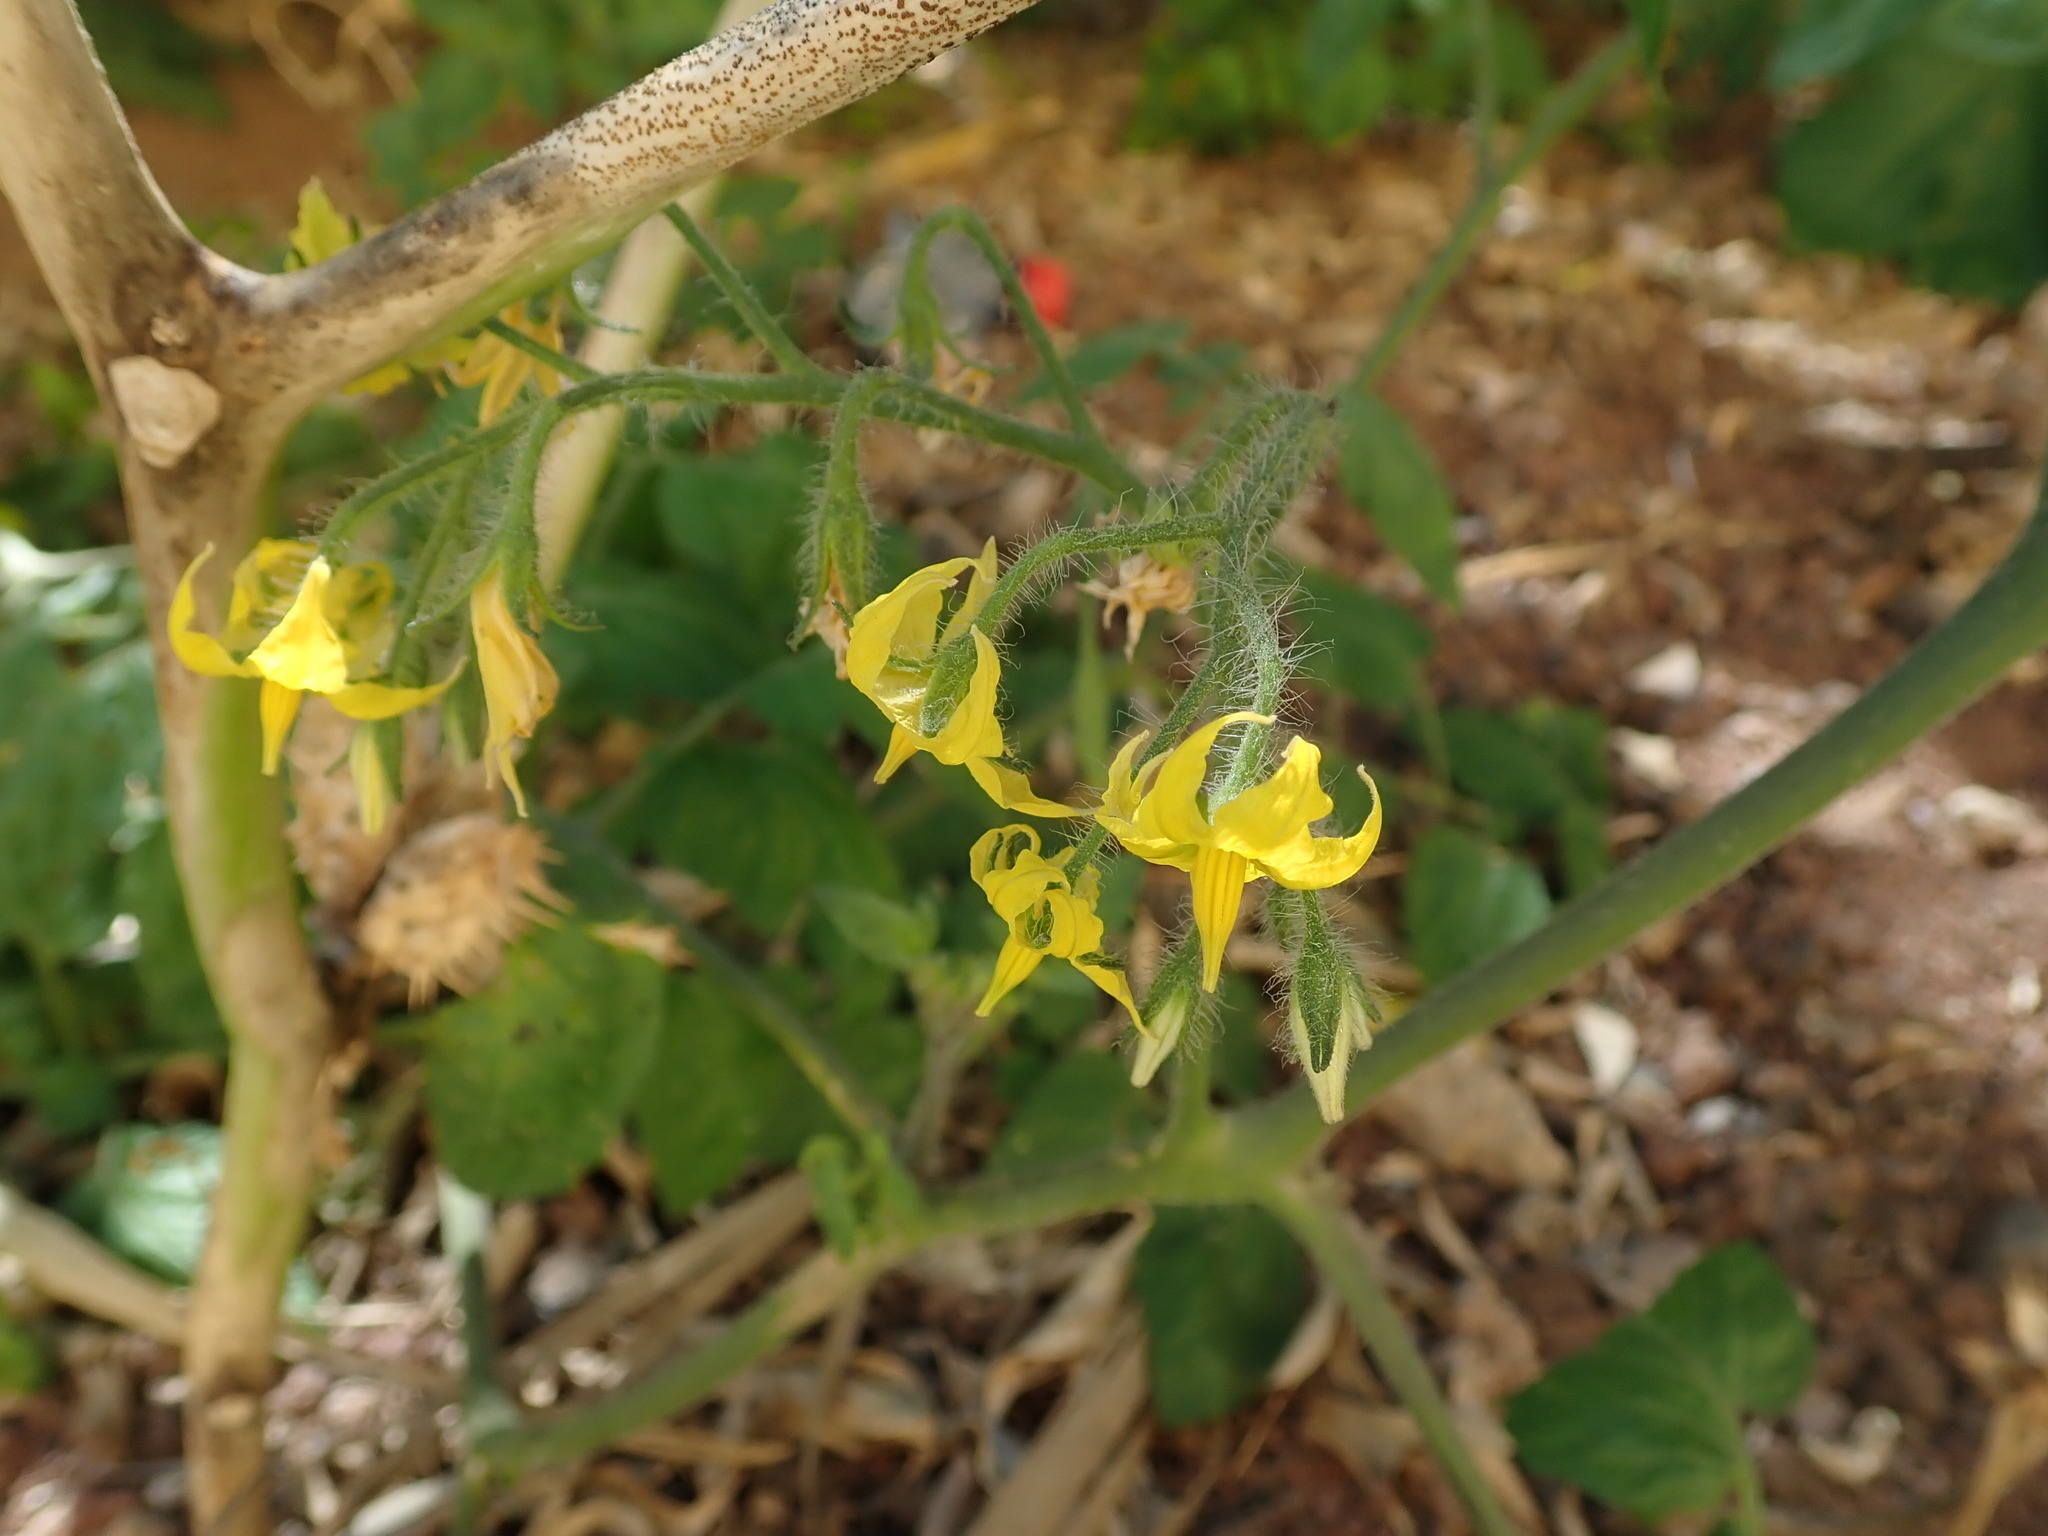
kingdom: Plantae
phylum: Tracheophyta
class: Magnoliopsida
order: Solanales
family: Solanaceae
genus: Solanum
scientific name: Solanum lycopersicum
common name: Garden tomato
